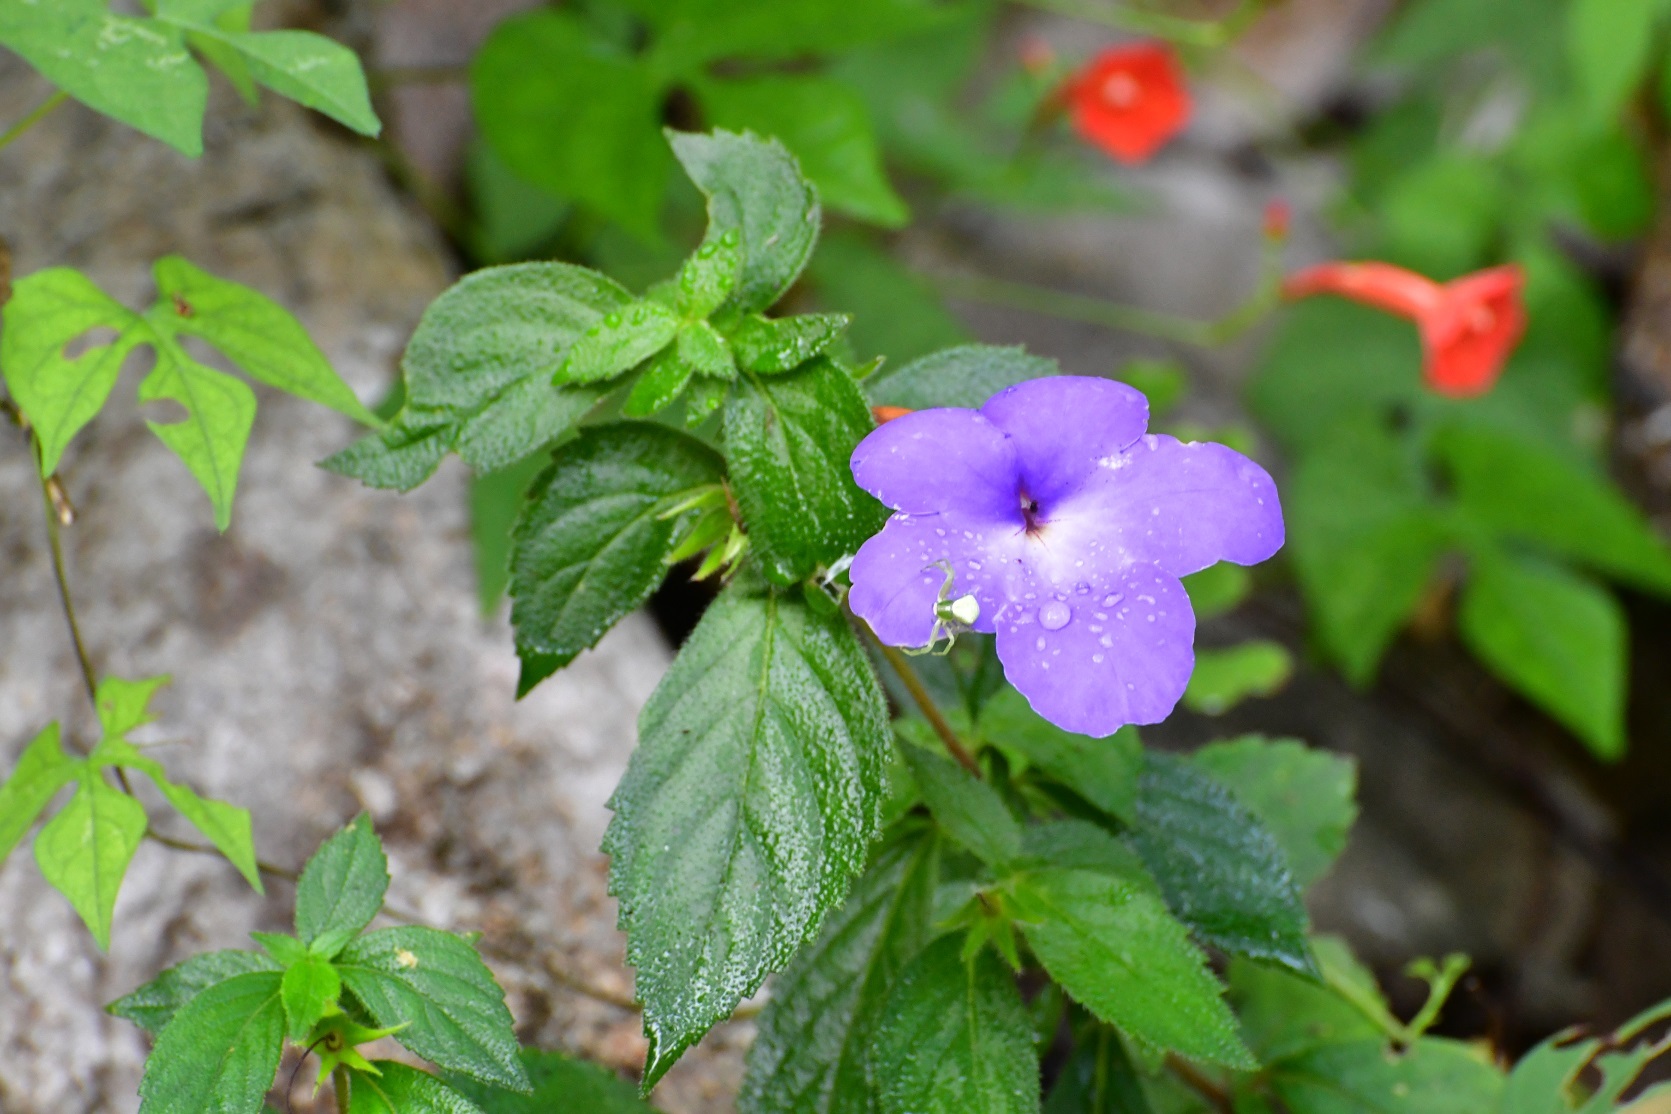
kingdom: Plantae
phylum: Tracheophyta
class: Magnoliopsida
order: Lamiales
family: Gesneriaceae
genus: Achimenes
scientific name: Achimenes longiflora
